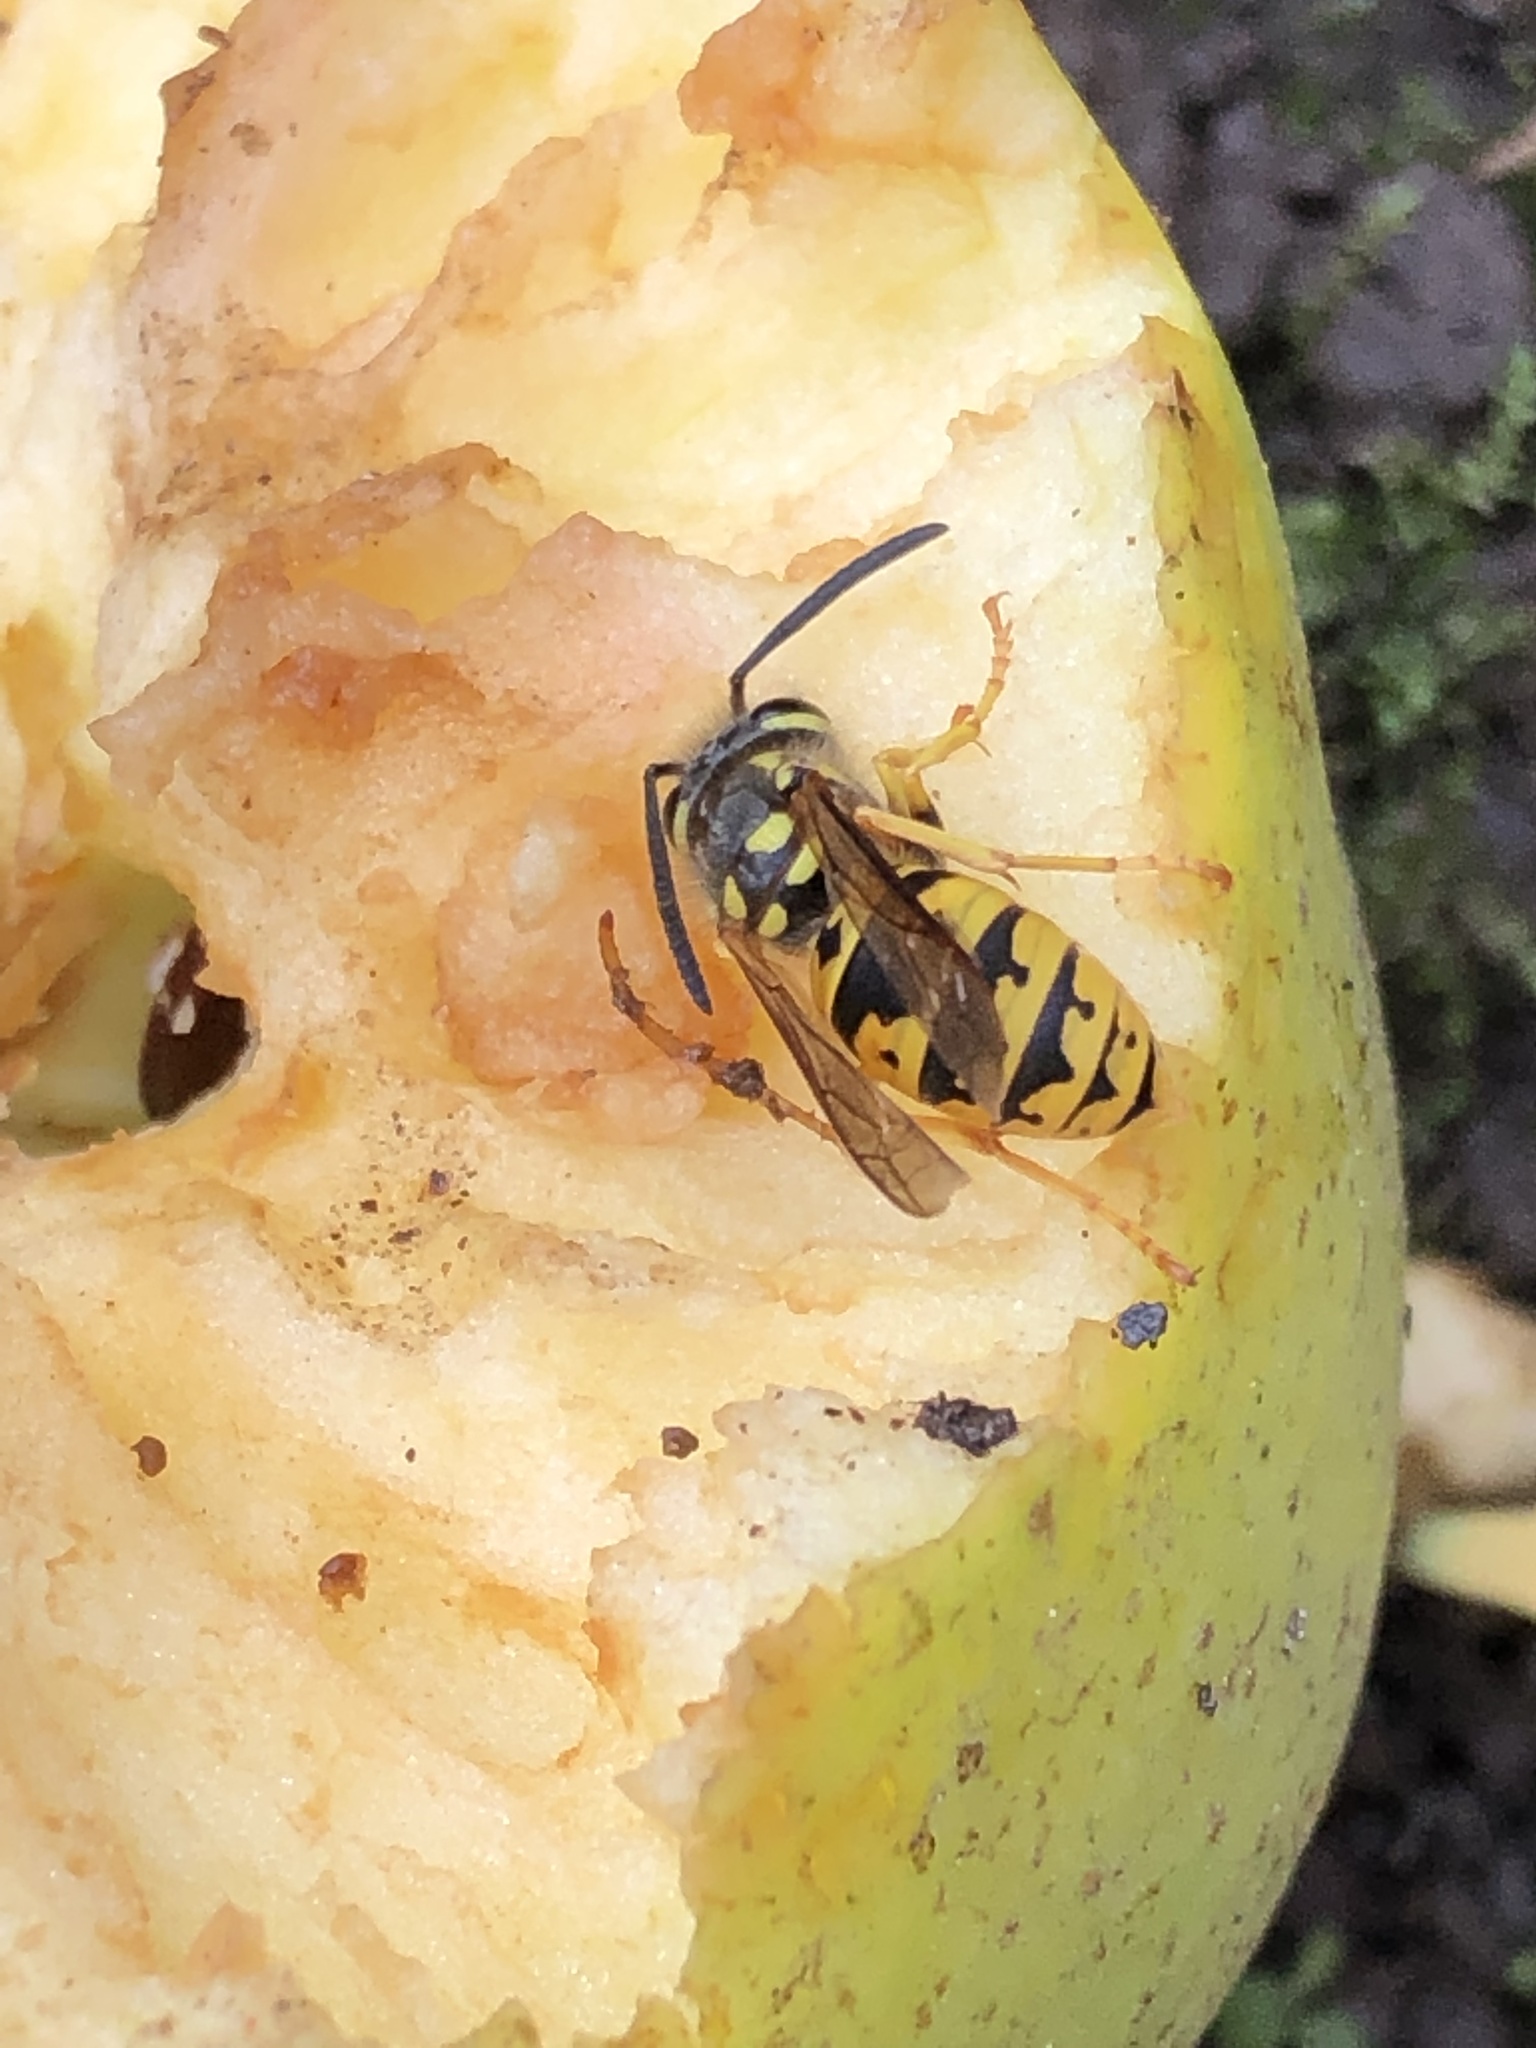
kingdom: Animalia
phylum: Arthropoda
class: Insecta
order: Hymenoptera
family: Vespidae
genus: Vespula
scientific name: Vespula germanica
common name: German wasp
